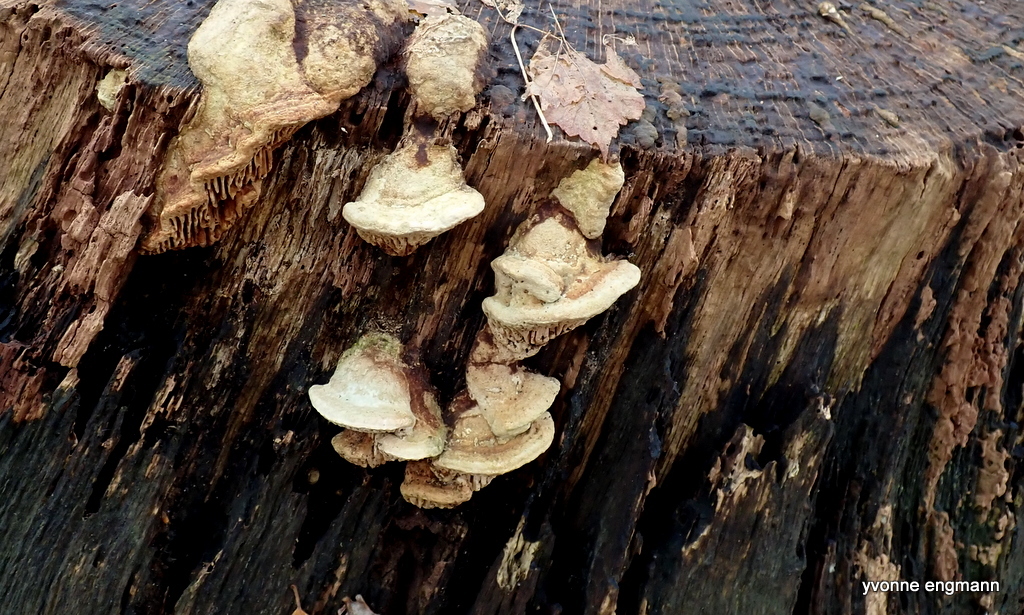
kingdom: Fungi
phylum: Basidiomycota
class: Agaricomycetes
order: Polyporales
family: Fomitopsidaceae
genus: Fomitopsis
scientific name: Fomitopsis
